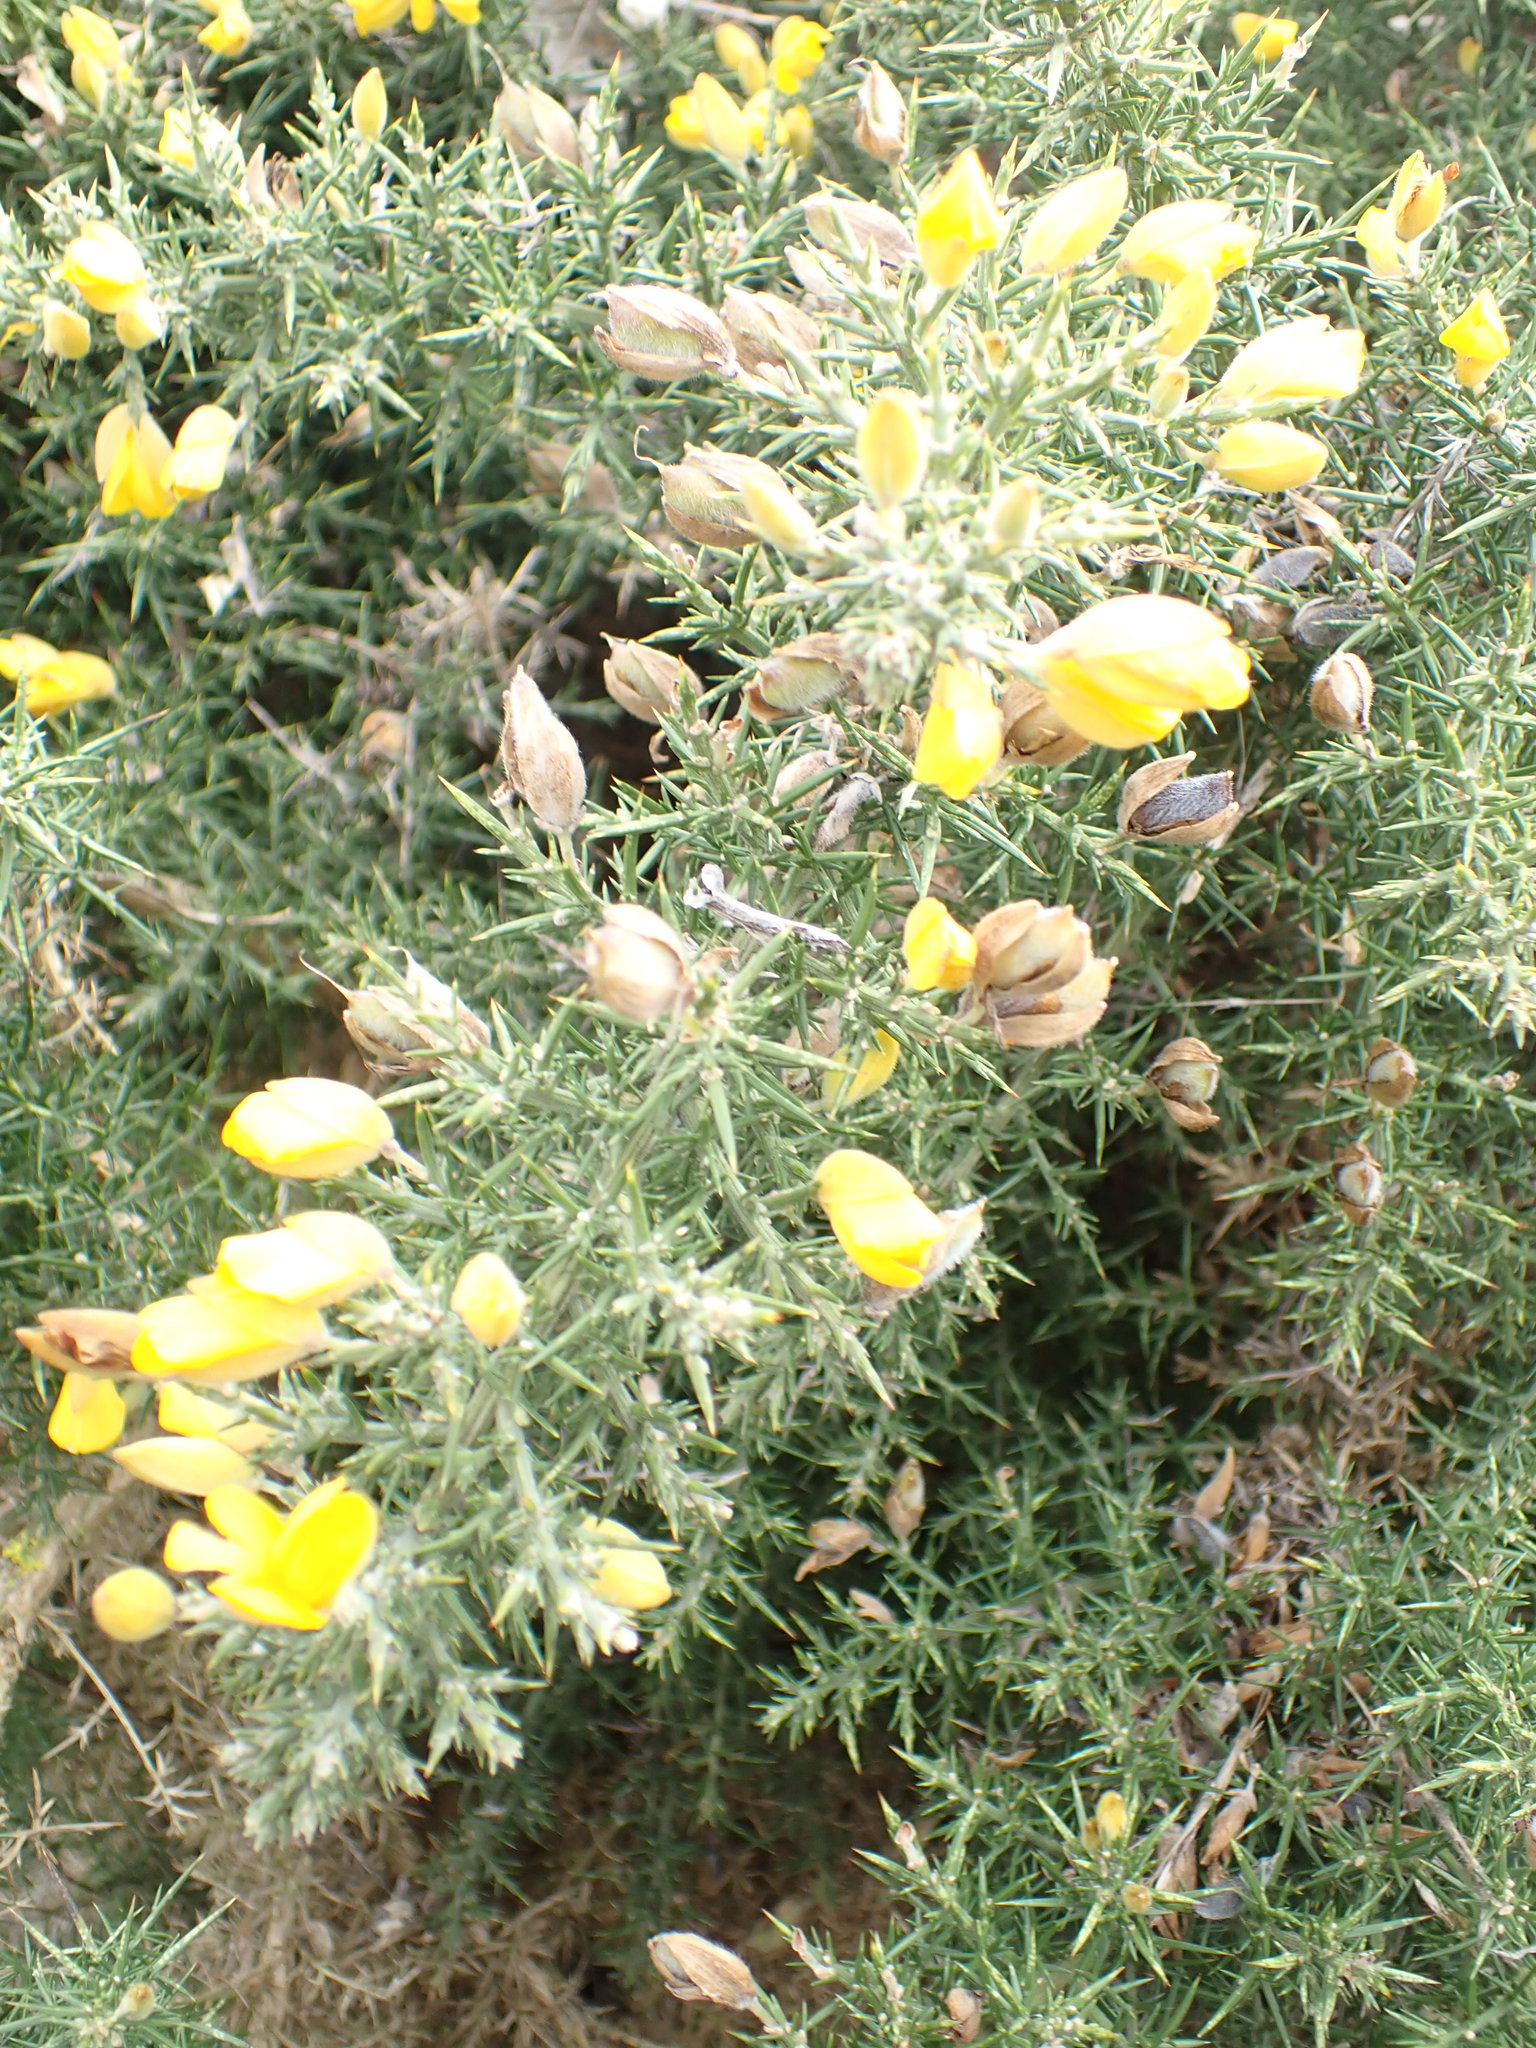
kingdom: Plantae
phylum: Tracheophyta
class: Magnoliopsida
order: Fabales
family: Fabaceae
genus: Ulex
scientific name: Ulex europaeus
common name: Common gorse
